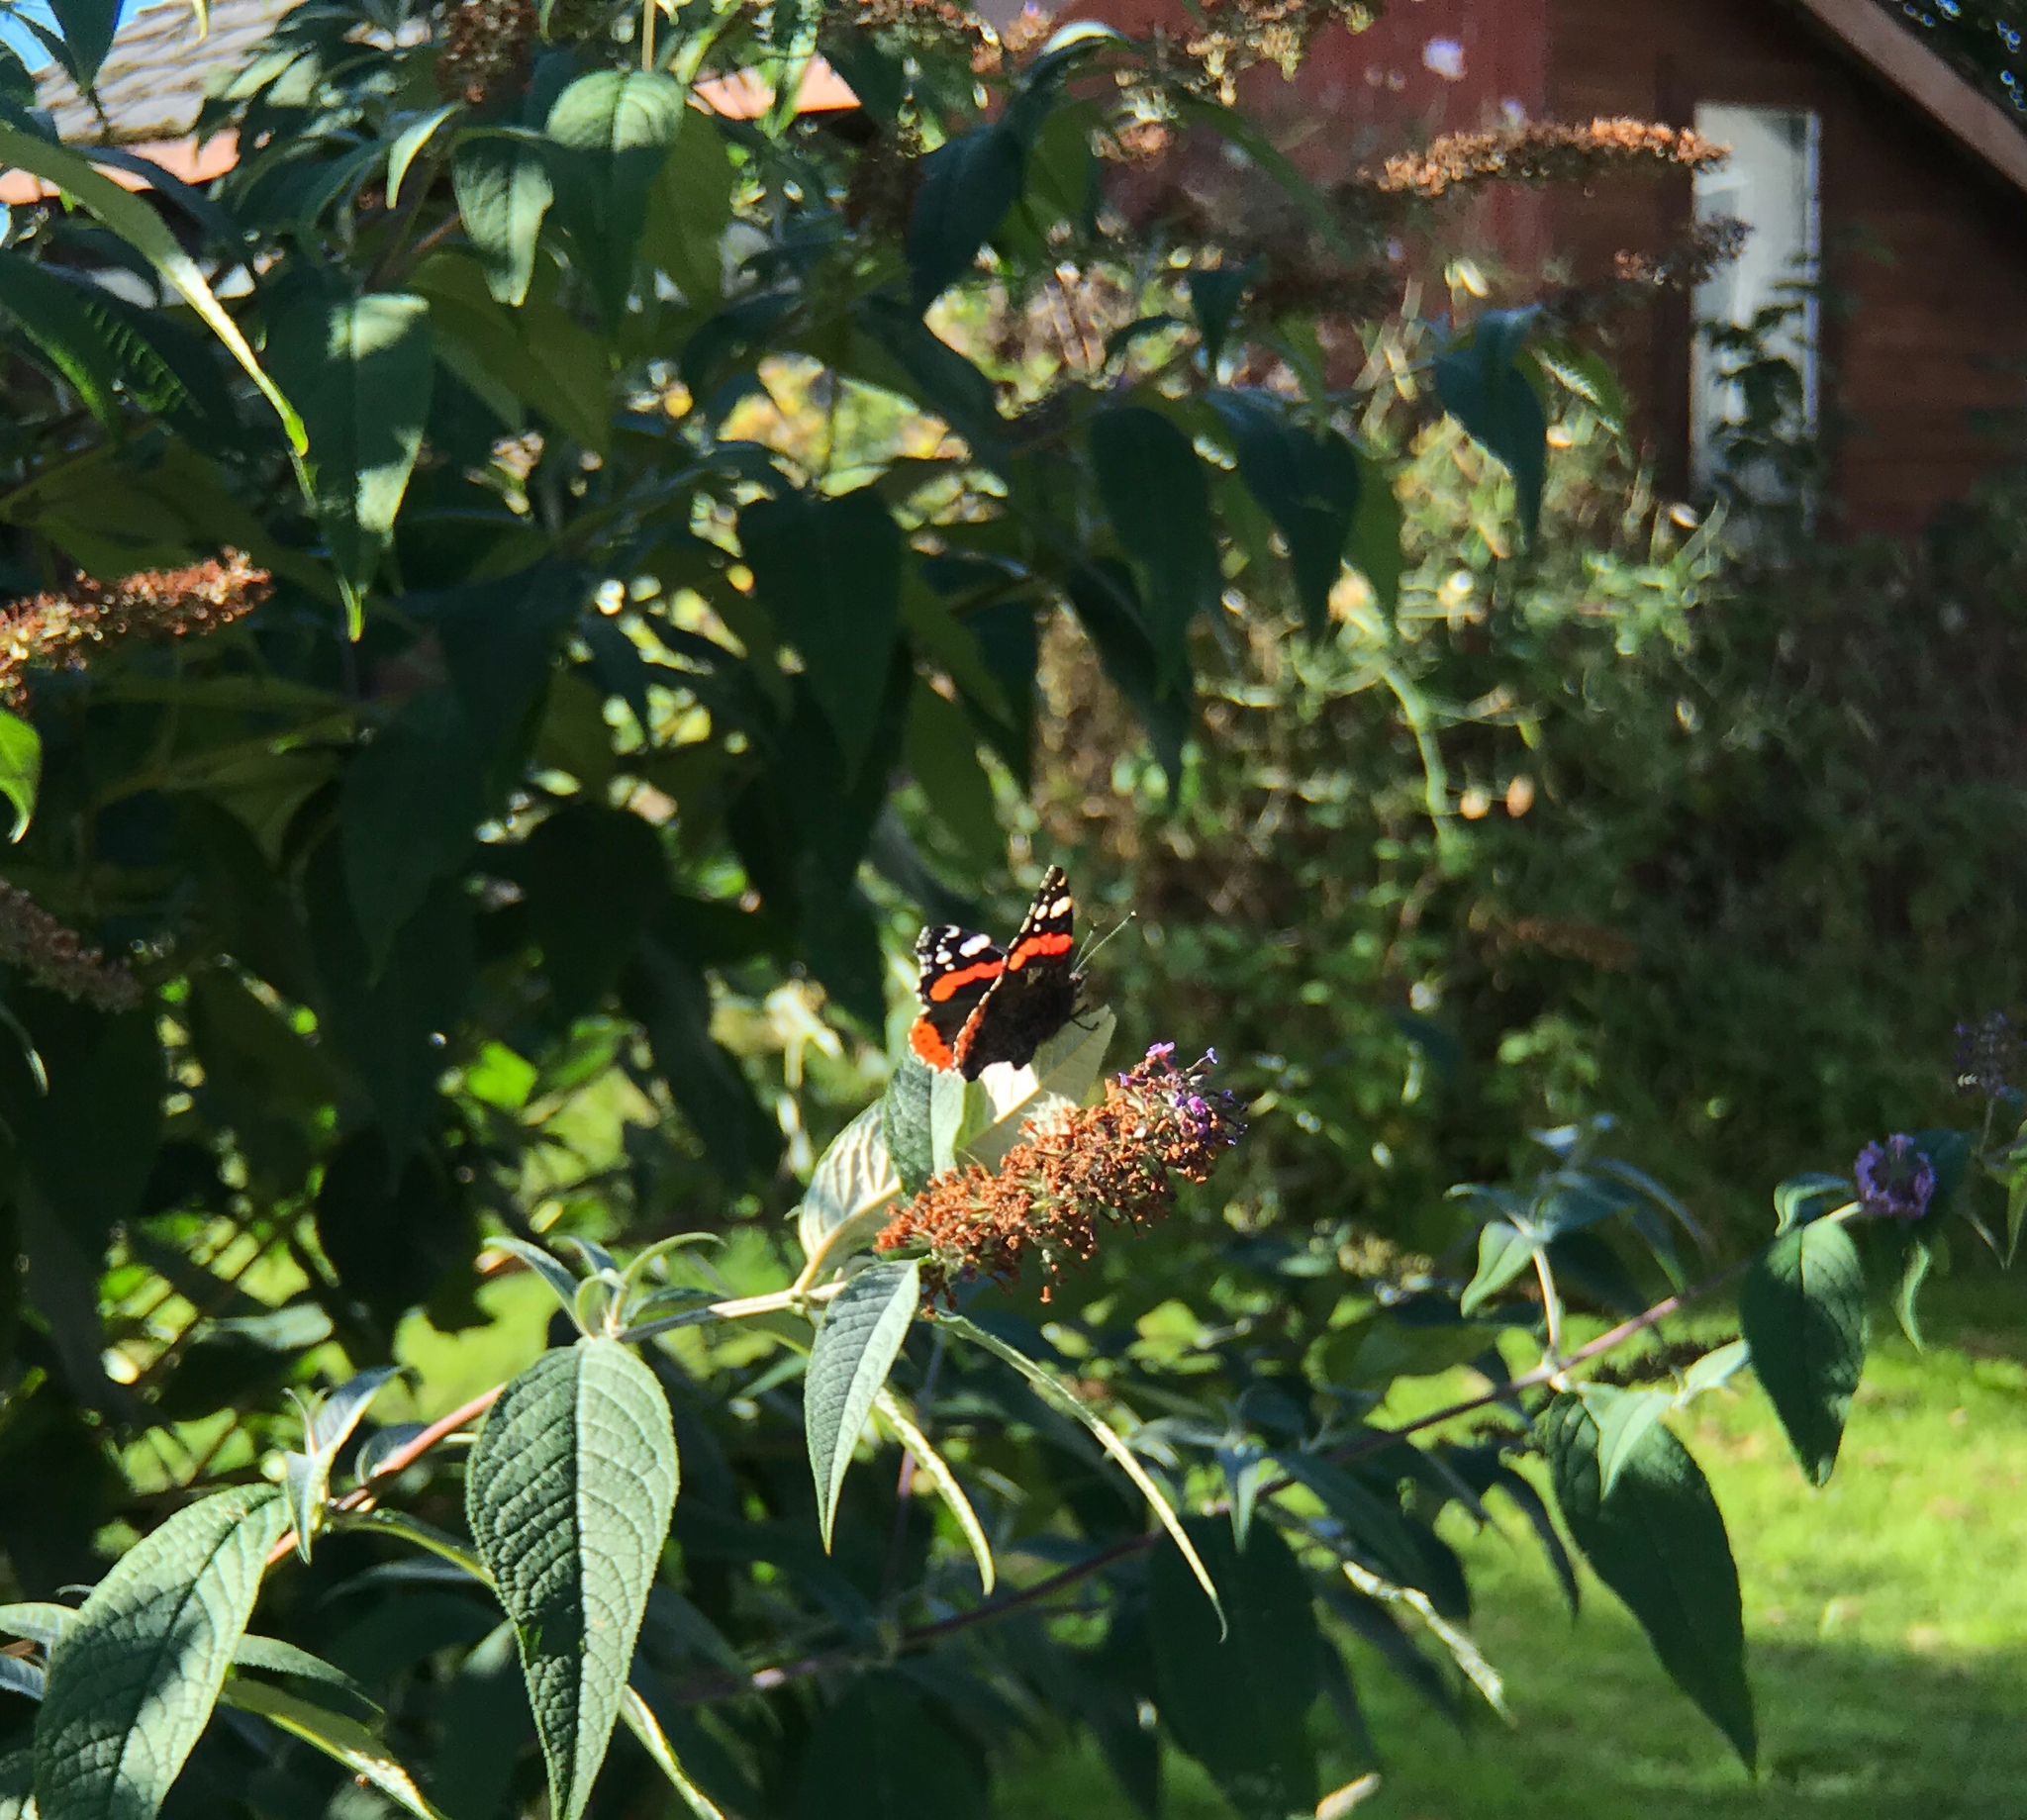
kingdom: Animalia
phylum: Arthropoda
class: Insecta
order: Lepidoptera
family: Nymphalidae
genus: Vanessa
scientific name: Vanessa atalanta
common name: Red admiral
